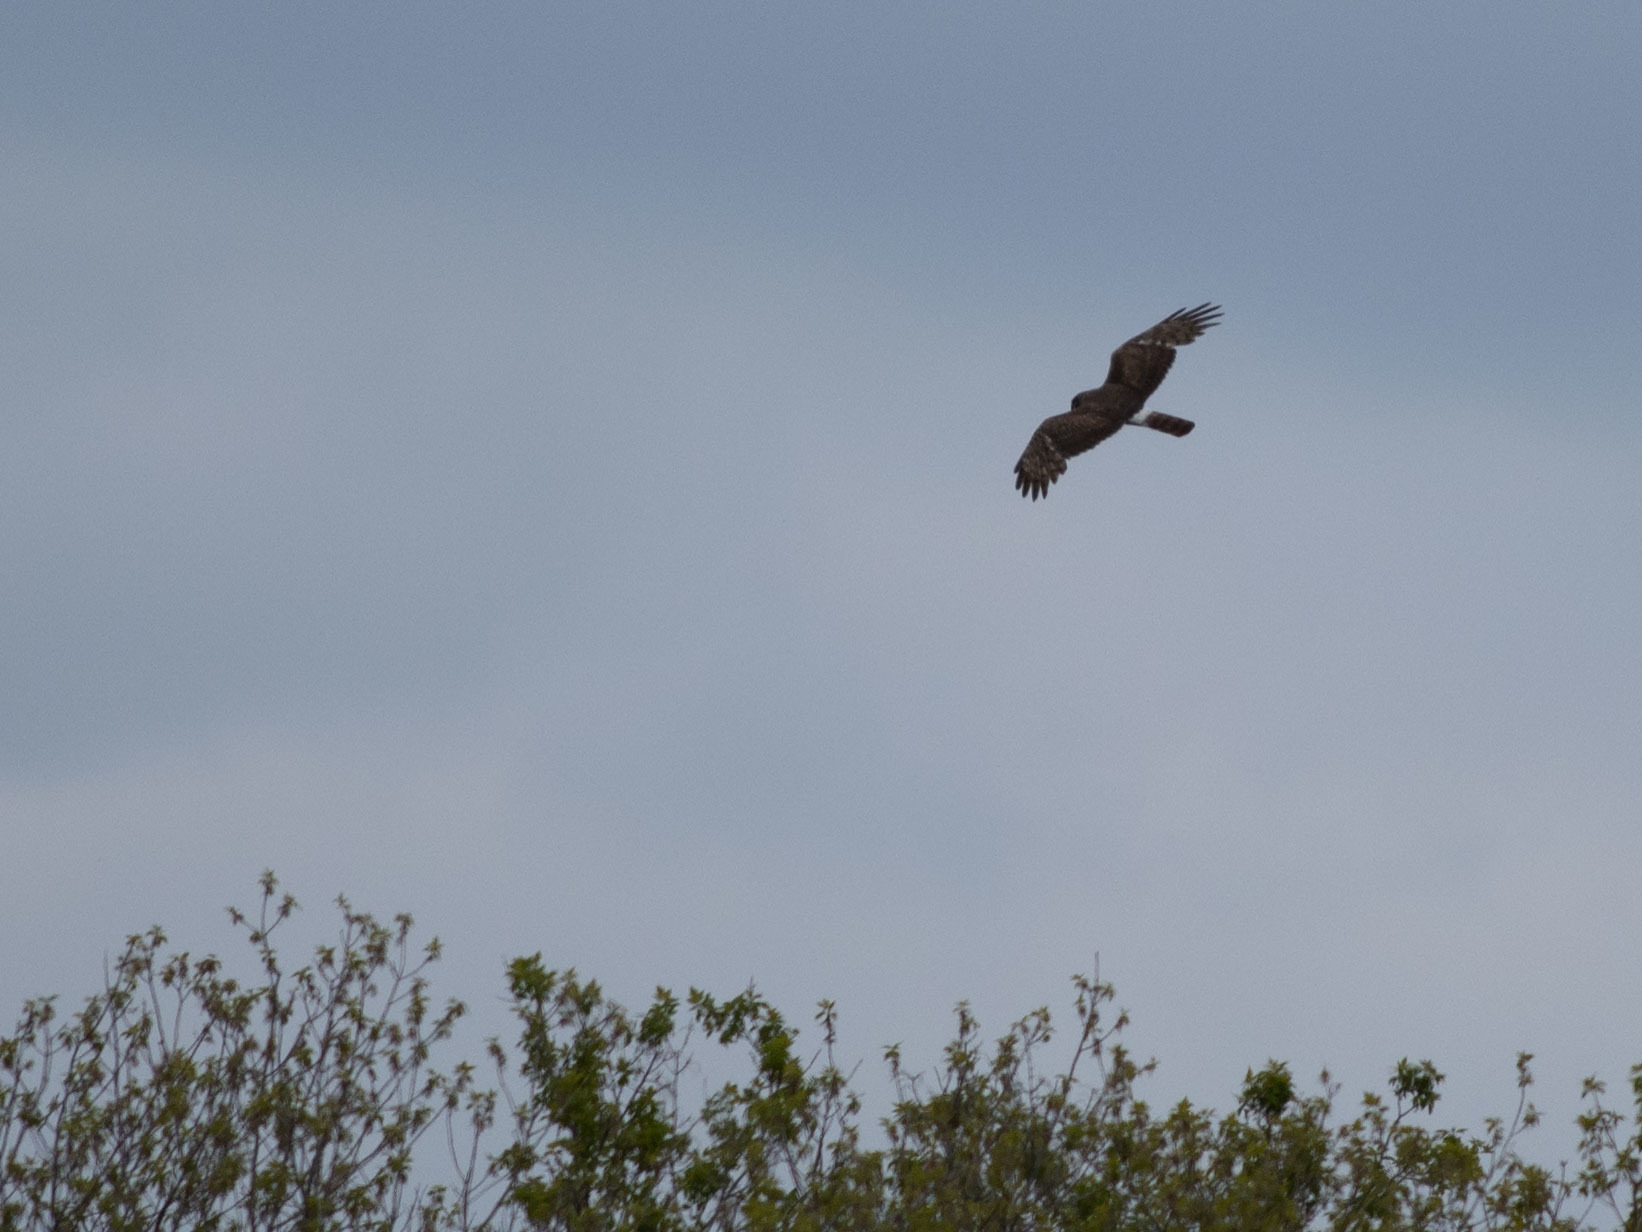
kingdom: Animalia
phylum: Chordata
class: Aves
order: Accipitriformes
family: Accipitridae
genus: Circus
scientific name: Circus cyaneus
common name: Hen harrier
